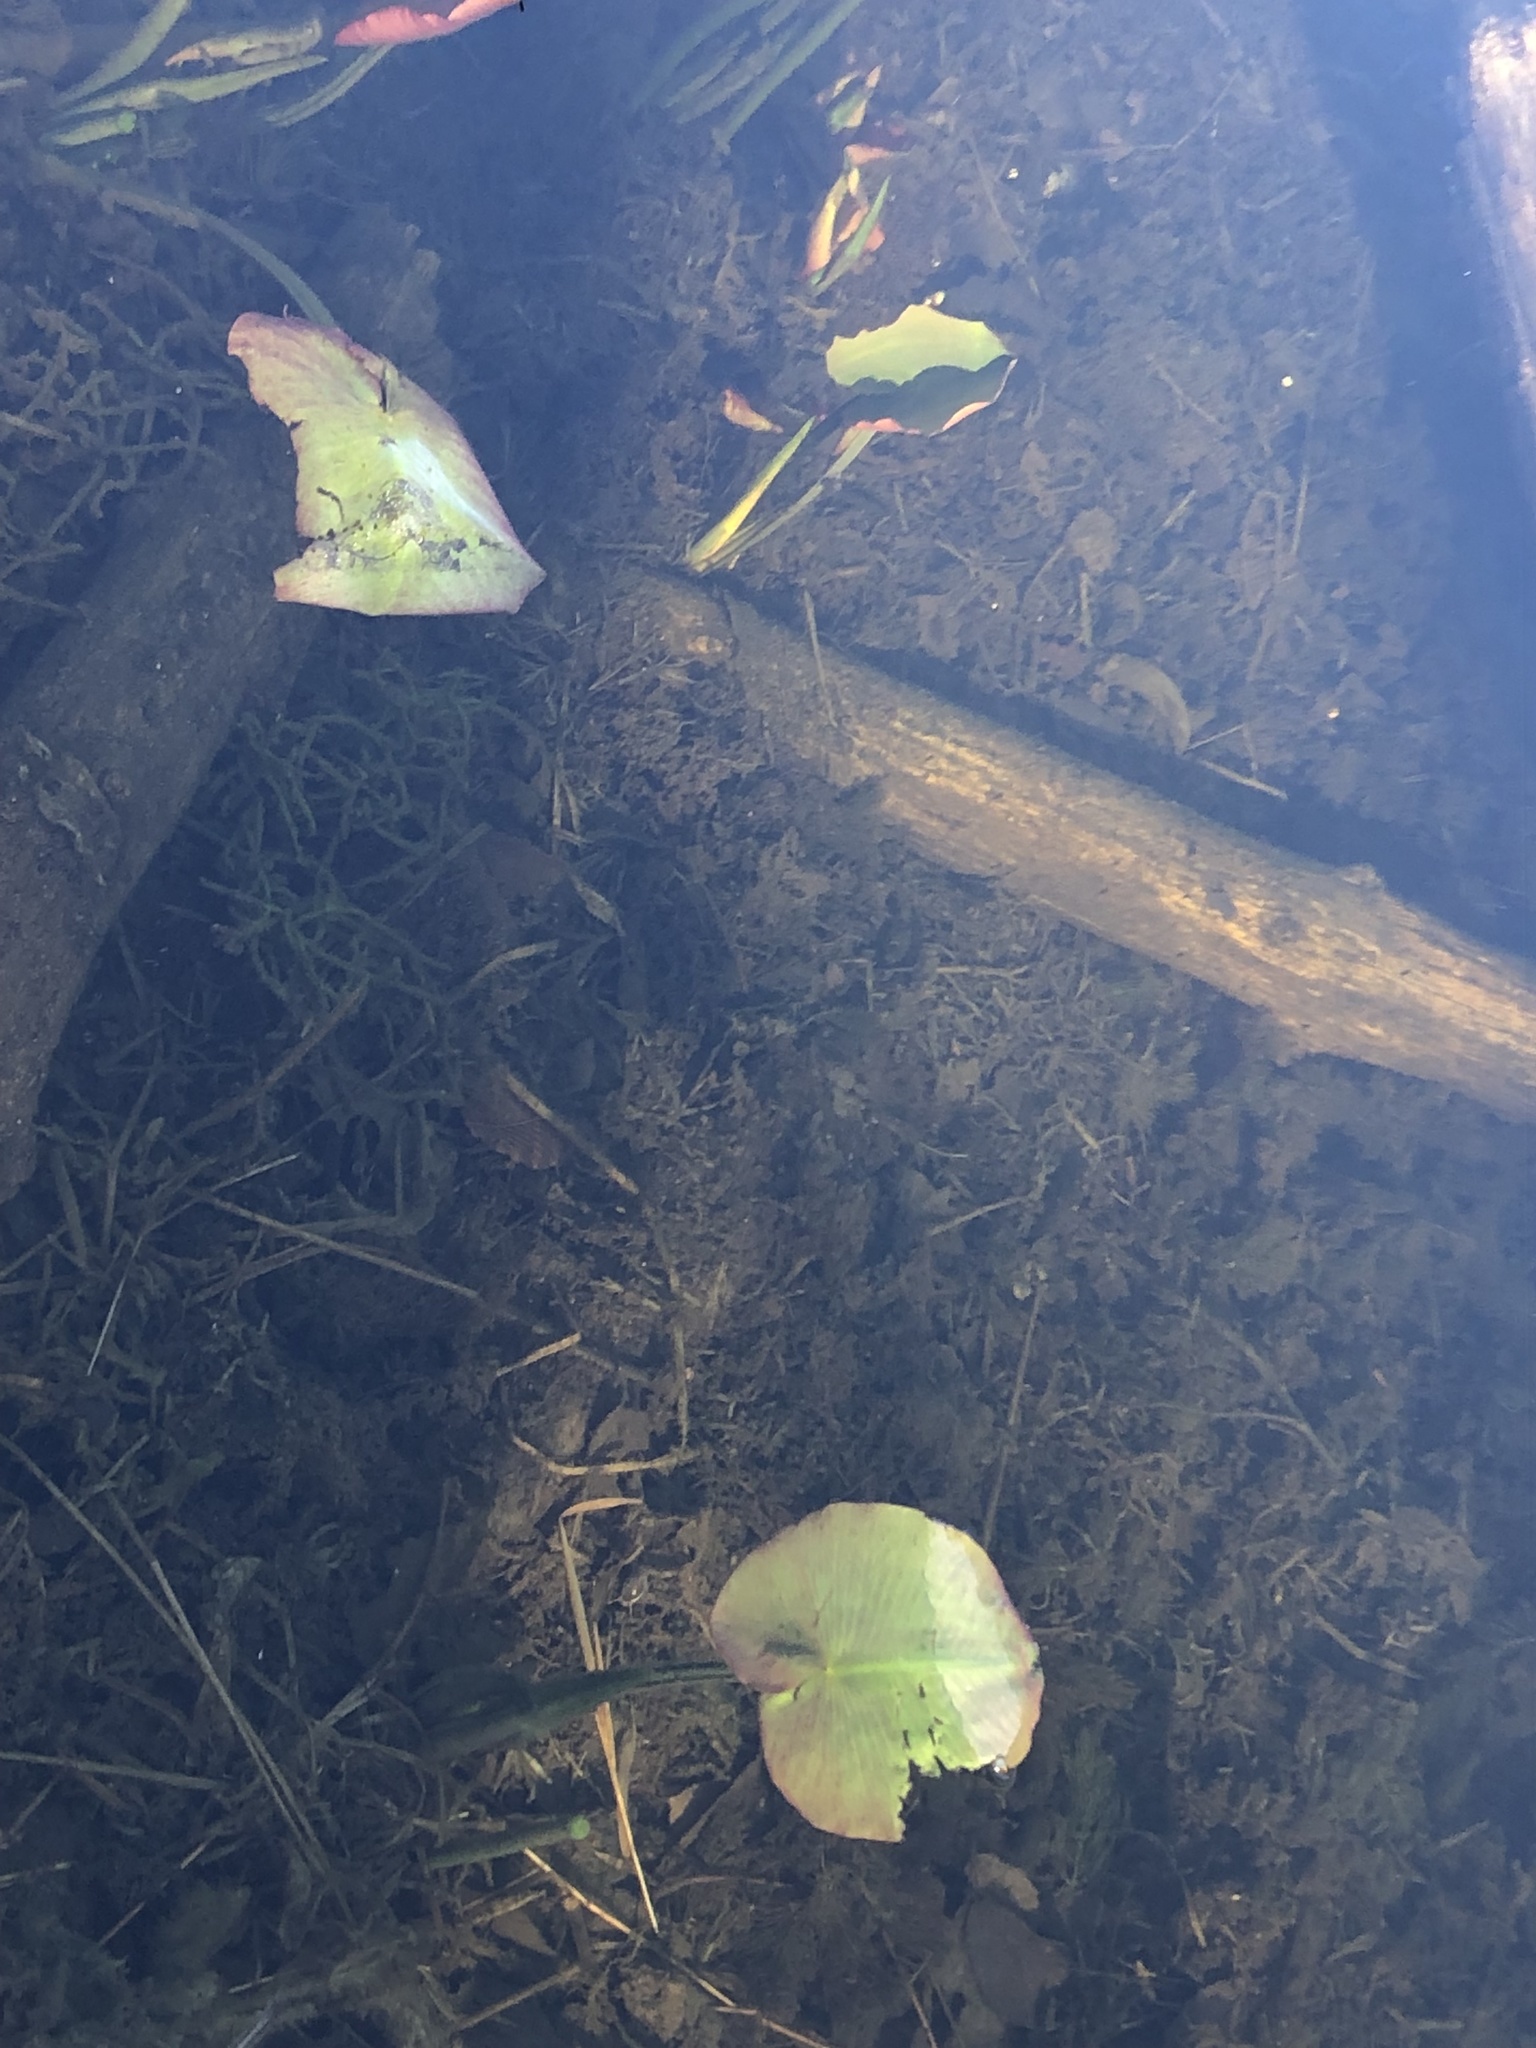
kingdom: Plantae
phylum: Tracheophyta
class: Magnoliopsida
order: Nymphaeales
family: Nymphaeaceae
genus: Nuphar
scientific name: Nuphar variegata
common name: Beaver-root
